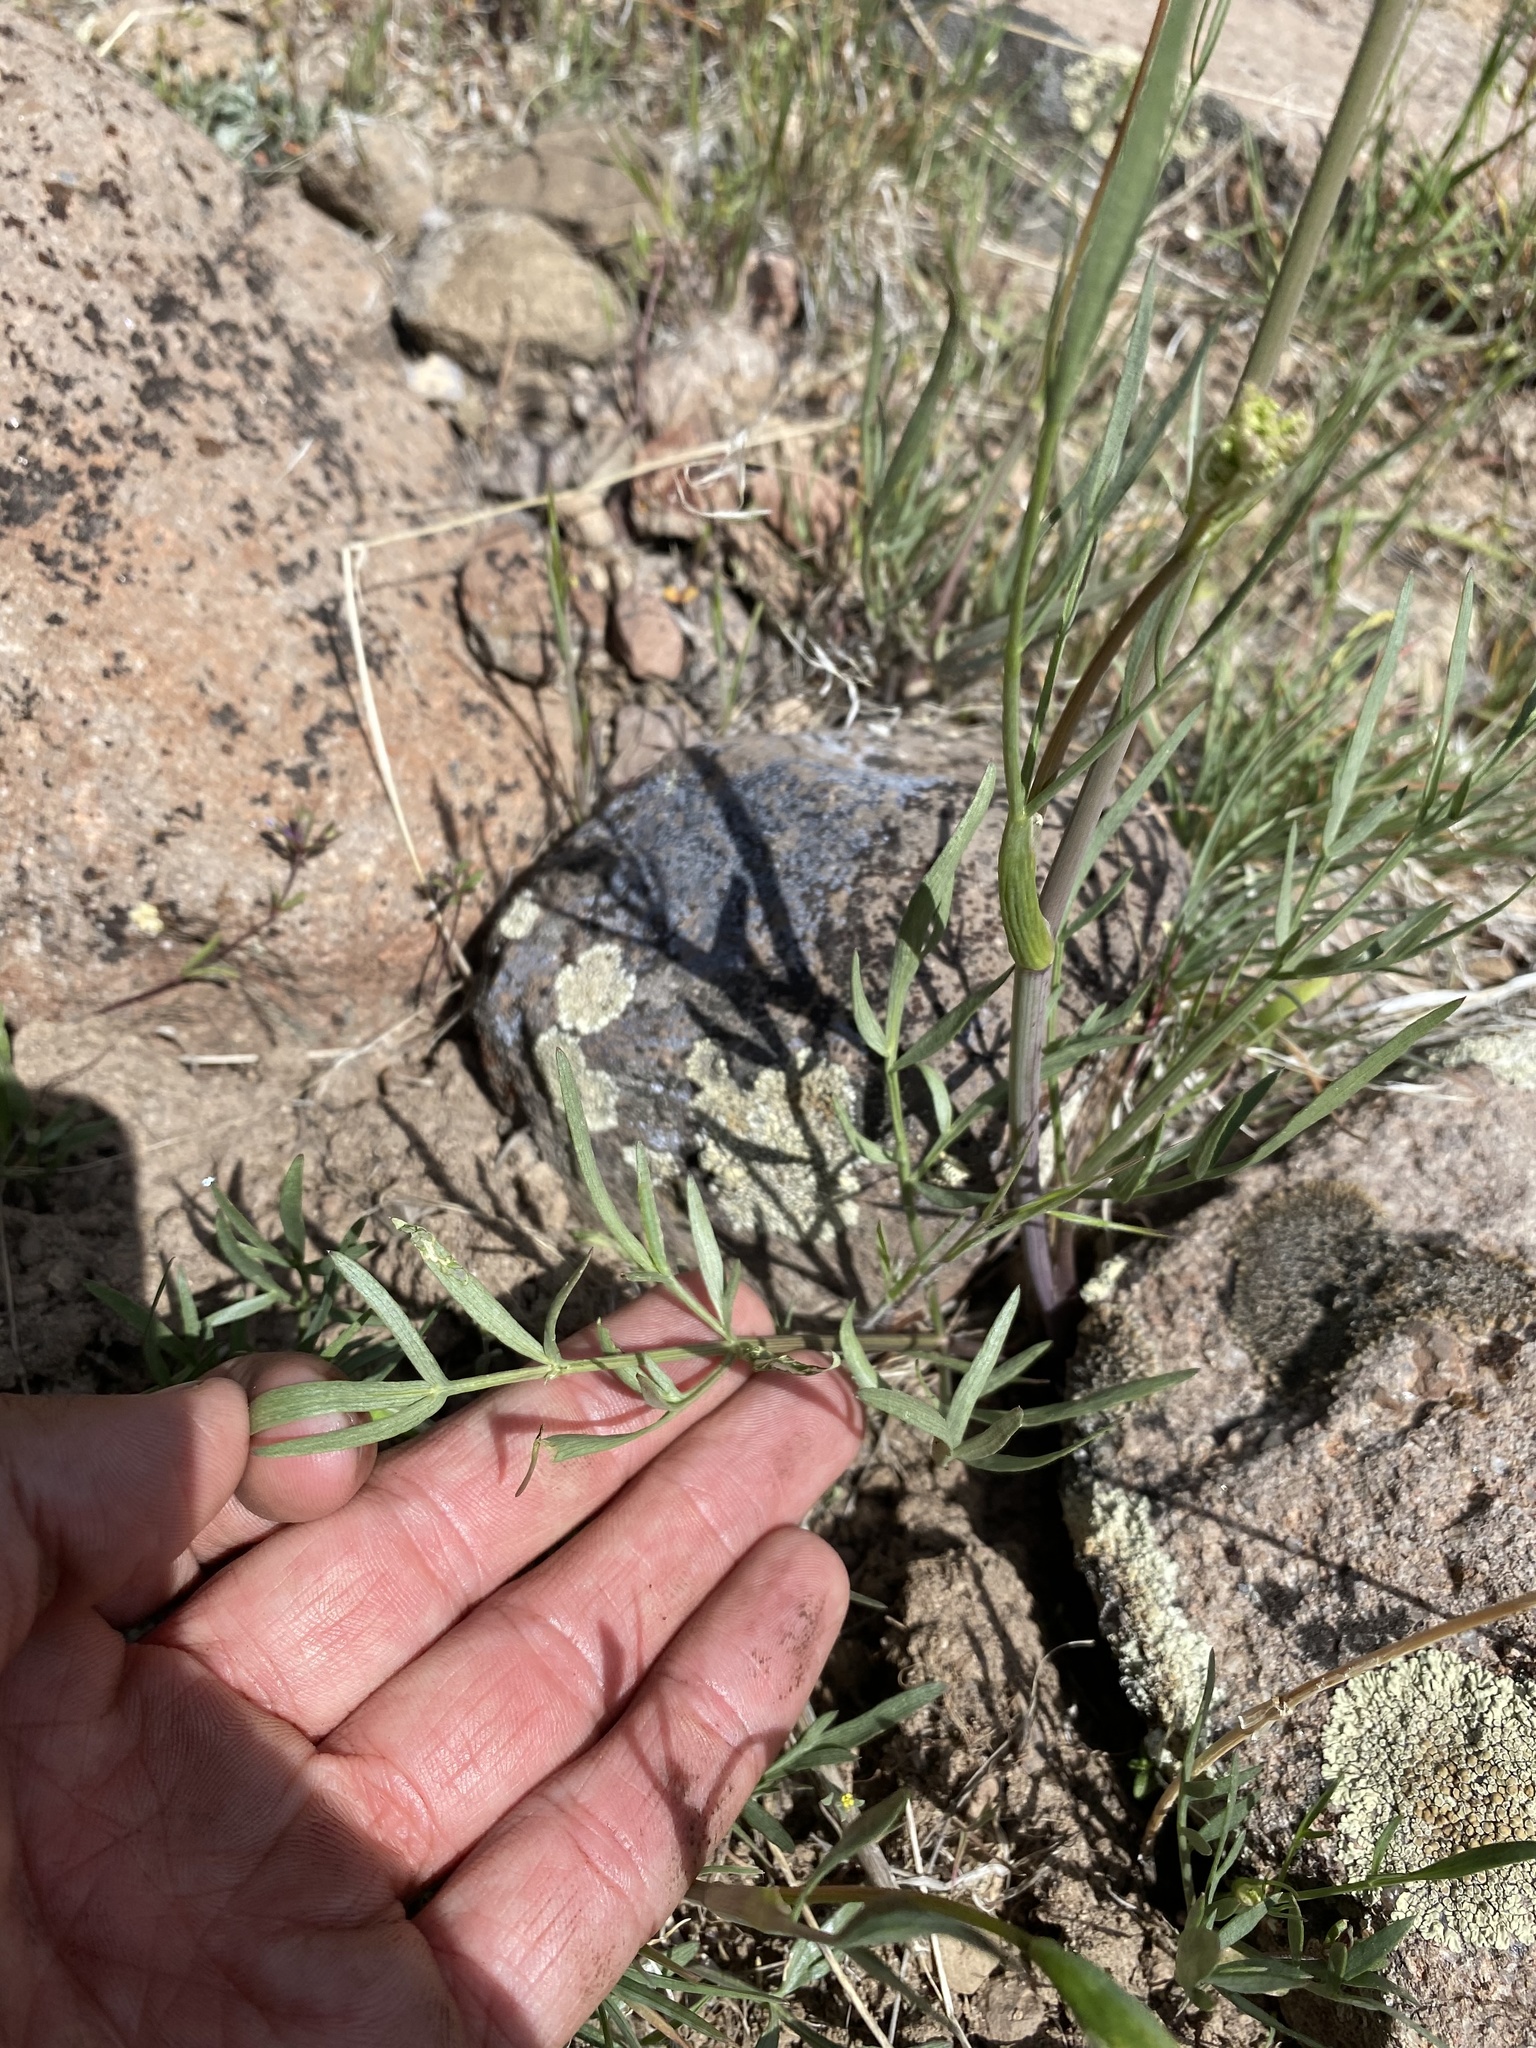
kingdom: Plantae
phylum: Tracheophyta
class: Magnoliopsida
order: Apiales
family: Apiaceae
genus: Perideridia
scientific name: Perideridia bolanderi
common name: Olasi
